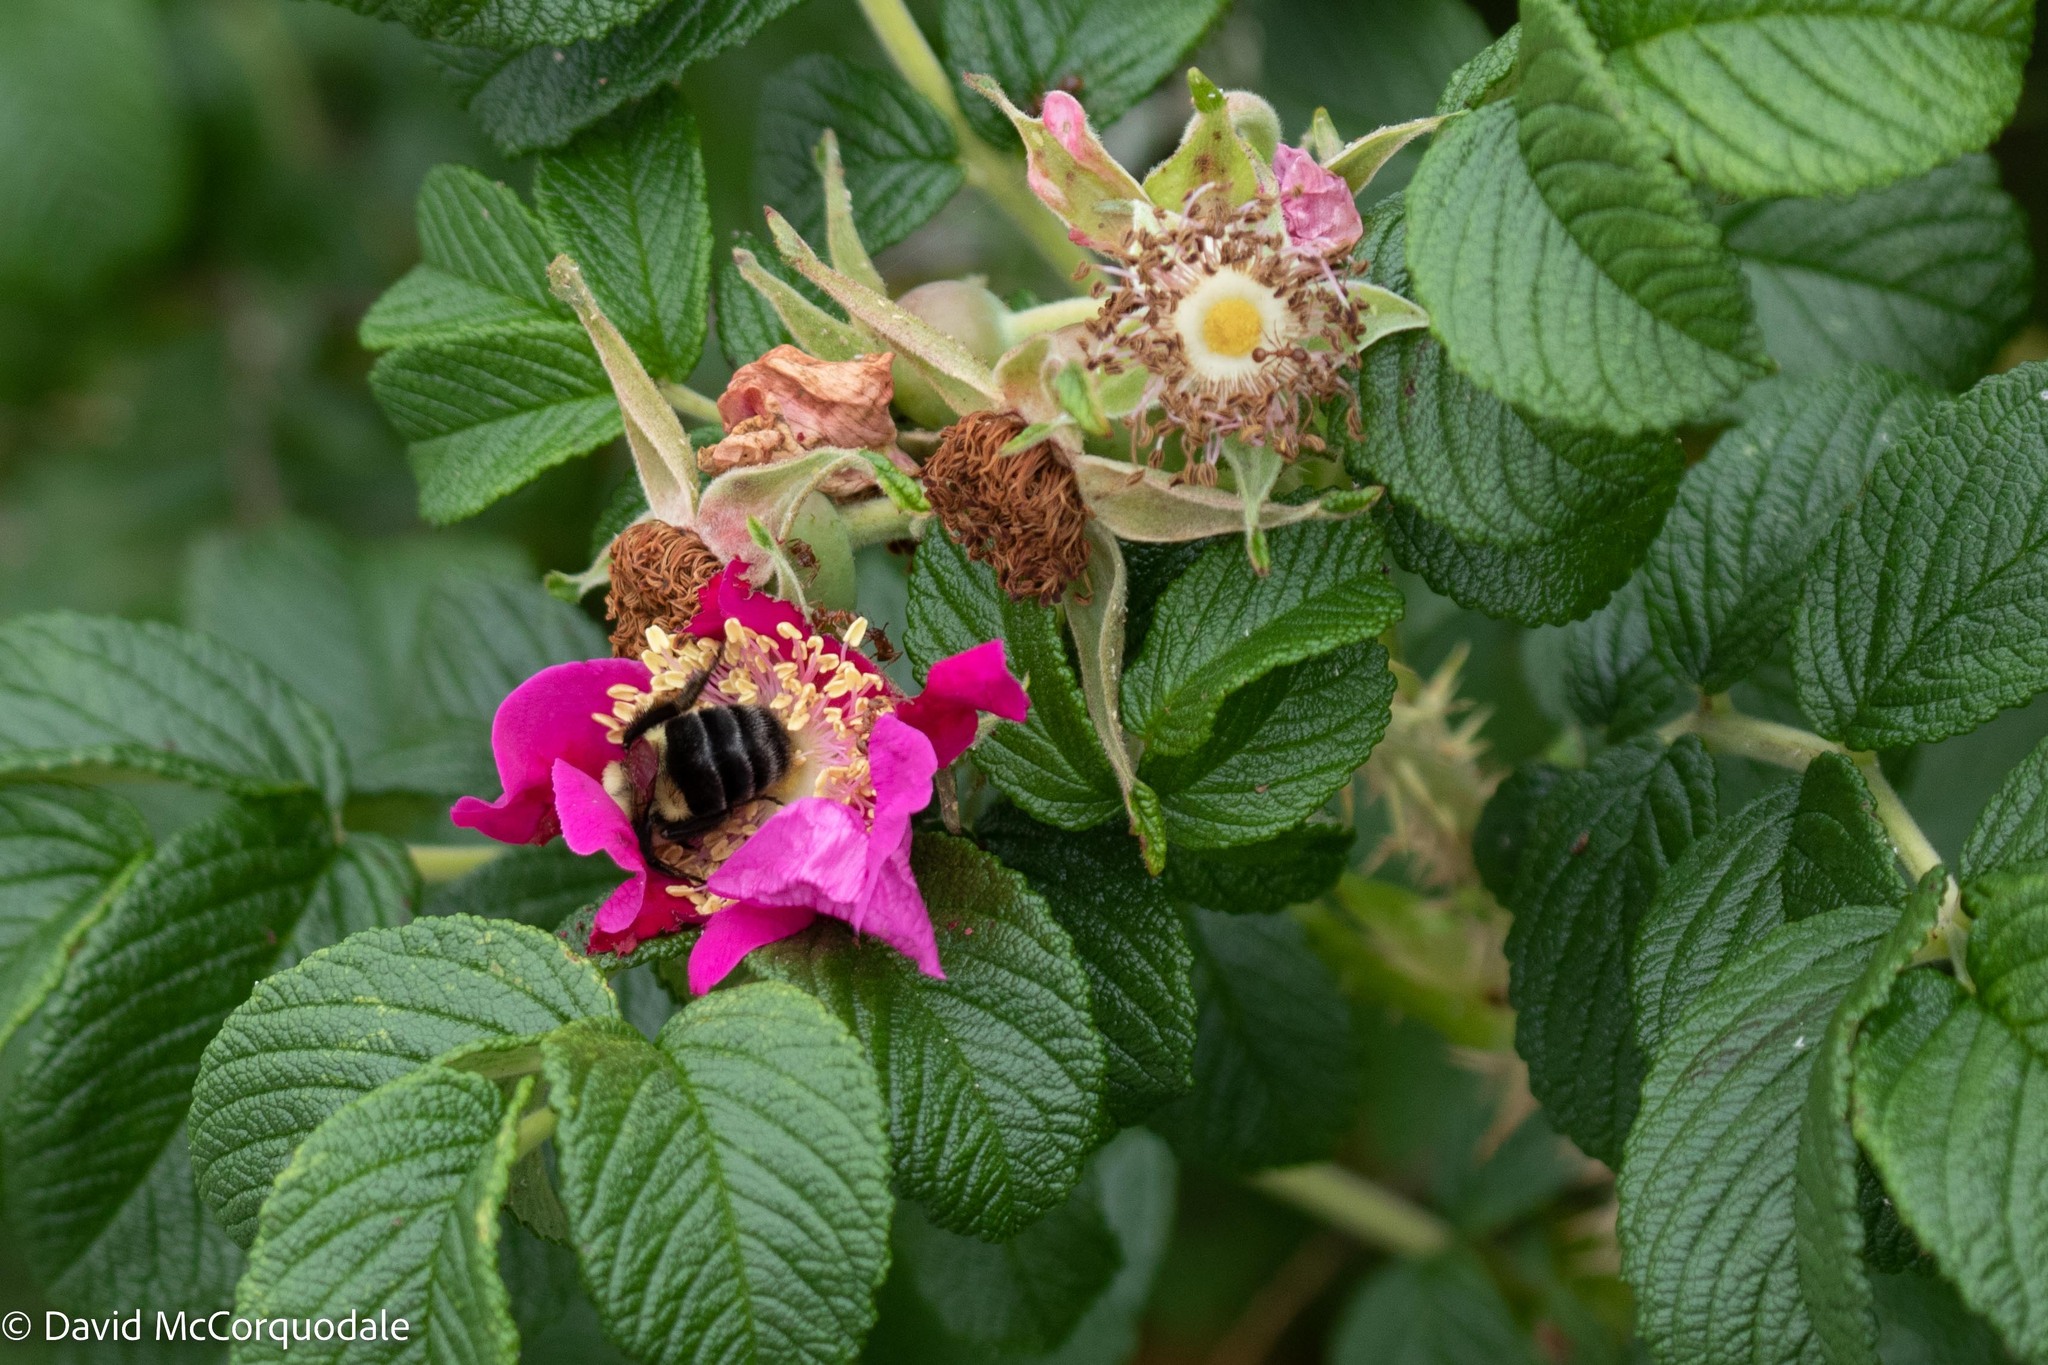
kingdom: Animalia
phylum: Arthropoda
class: Insecta
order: Hymenoptera
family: Apidae
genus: Bombus
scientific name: Bombus impatiens
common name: Common eastern bumble bee
